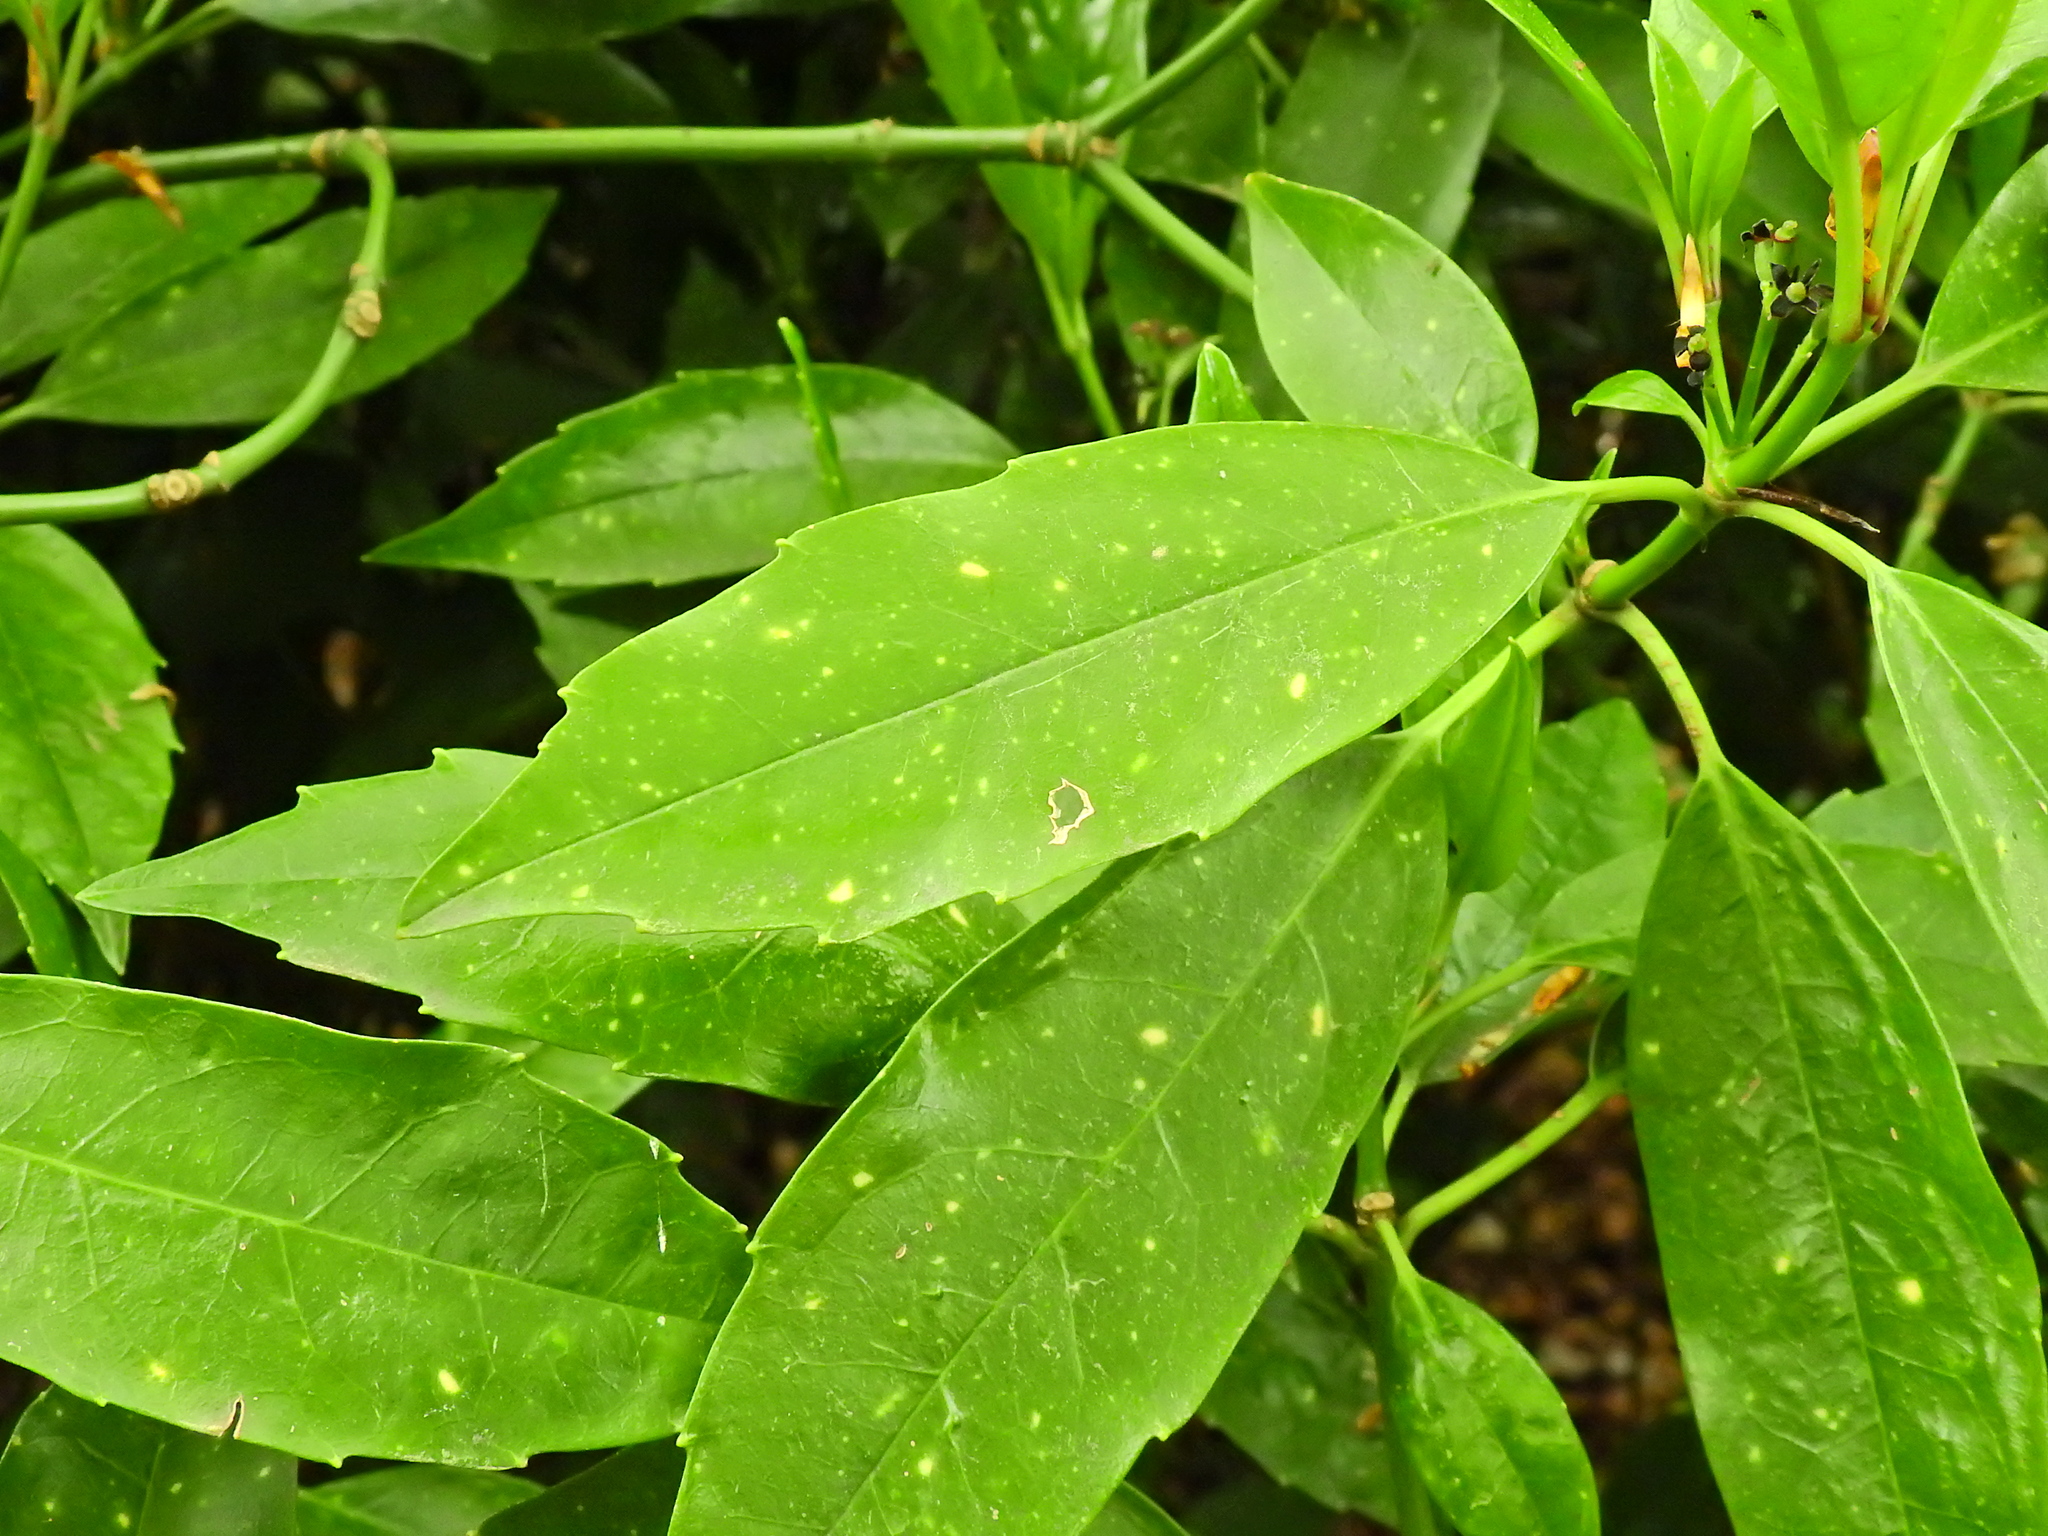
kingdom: Plantae
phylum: Tracheophyta
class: Magnoliopsida
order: Garryales
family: Garryaceae
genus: Aucuba
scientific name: Aucuba japonica
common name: Spotted-laurel
